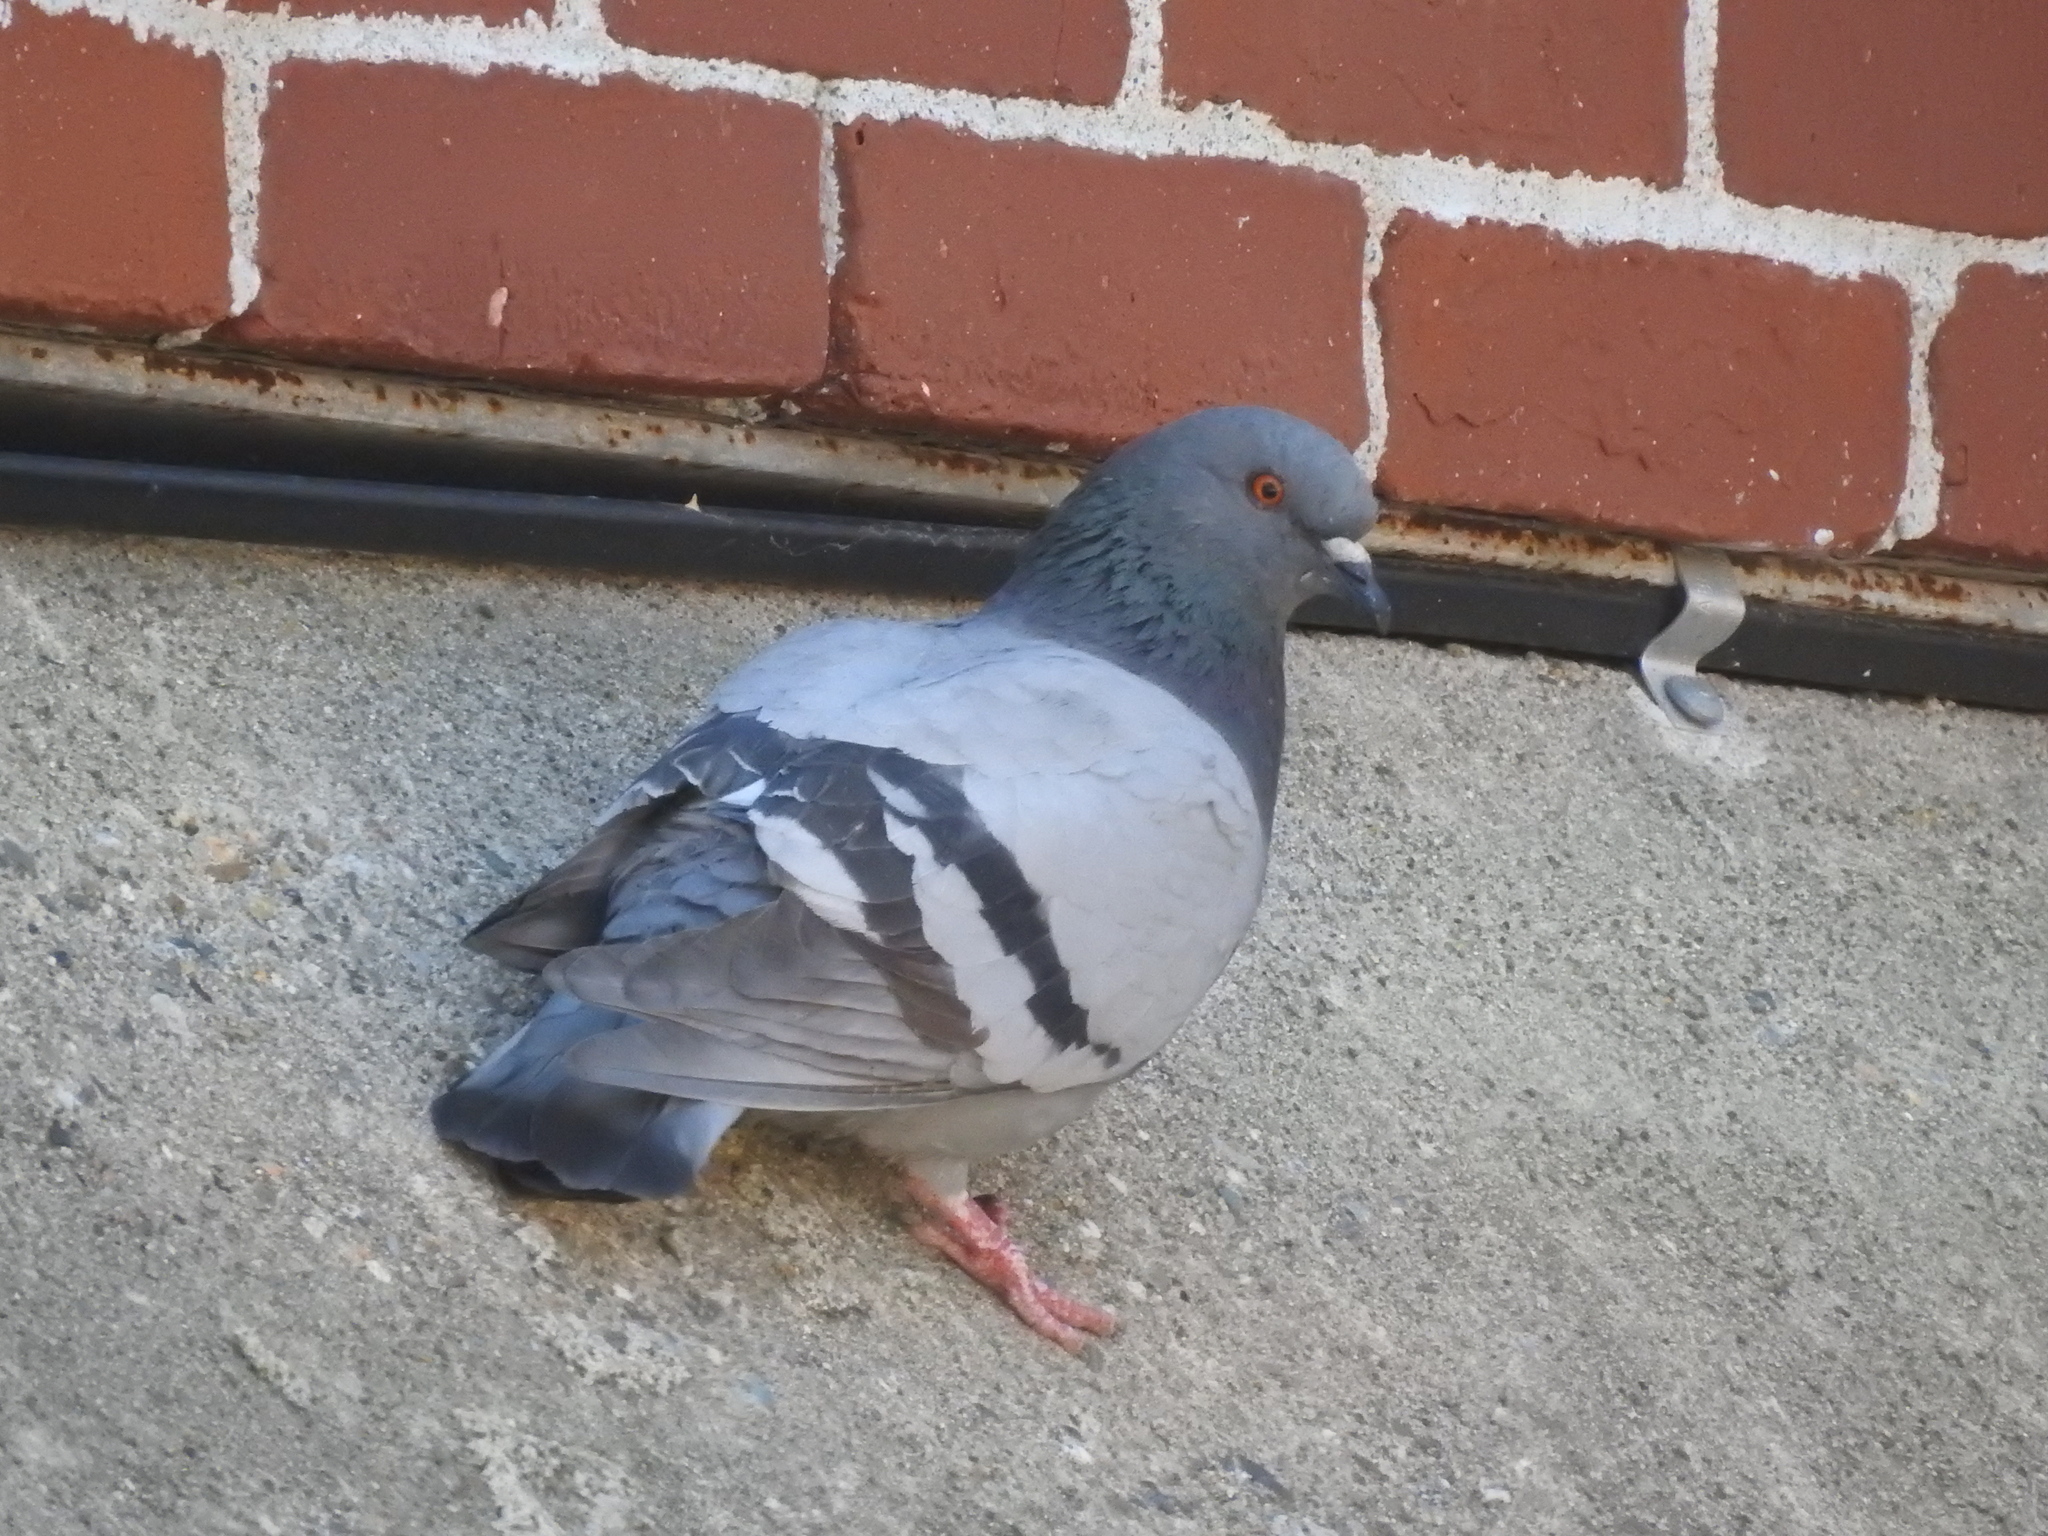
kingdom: Animalia
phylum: Chordata
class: Aves
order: Columbiformes
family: Columbidae
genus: Columba
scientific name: Columba livia
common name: Rock pigeon
